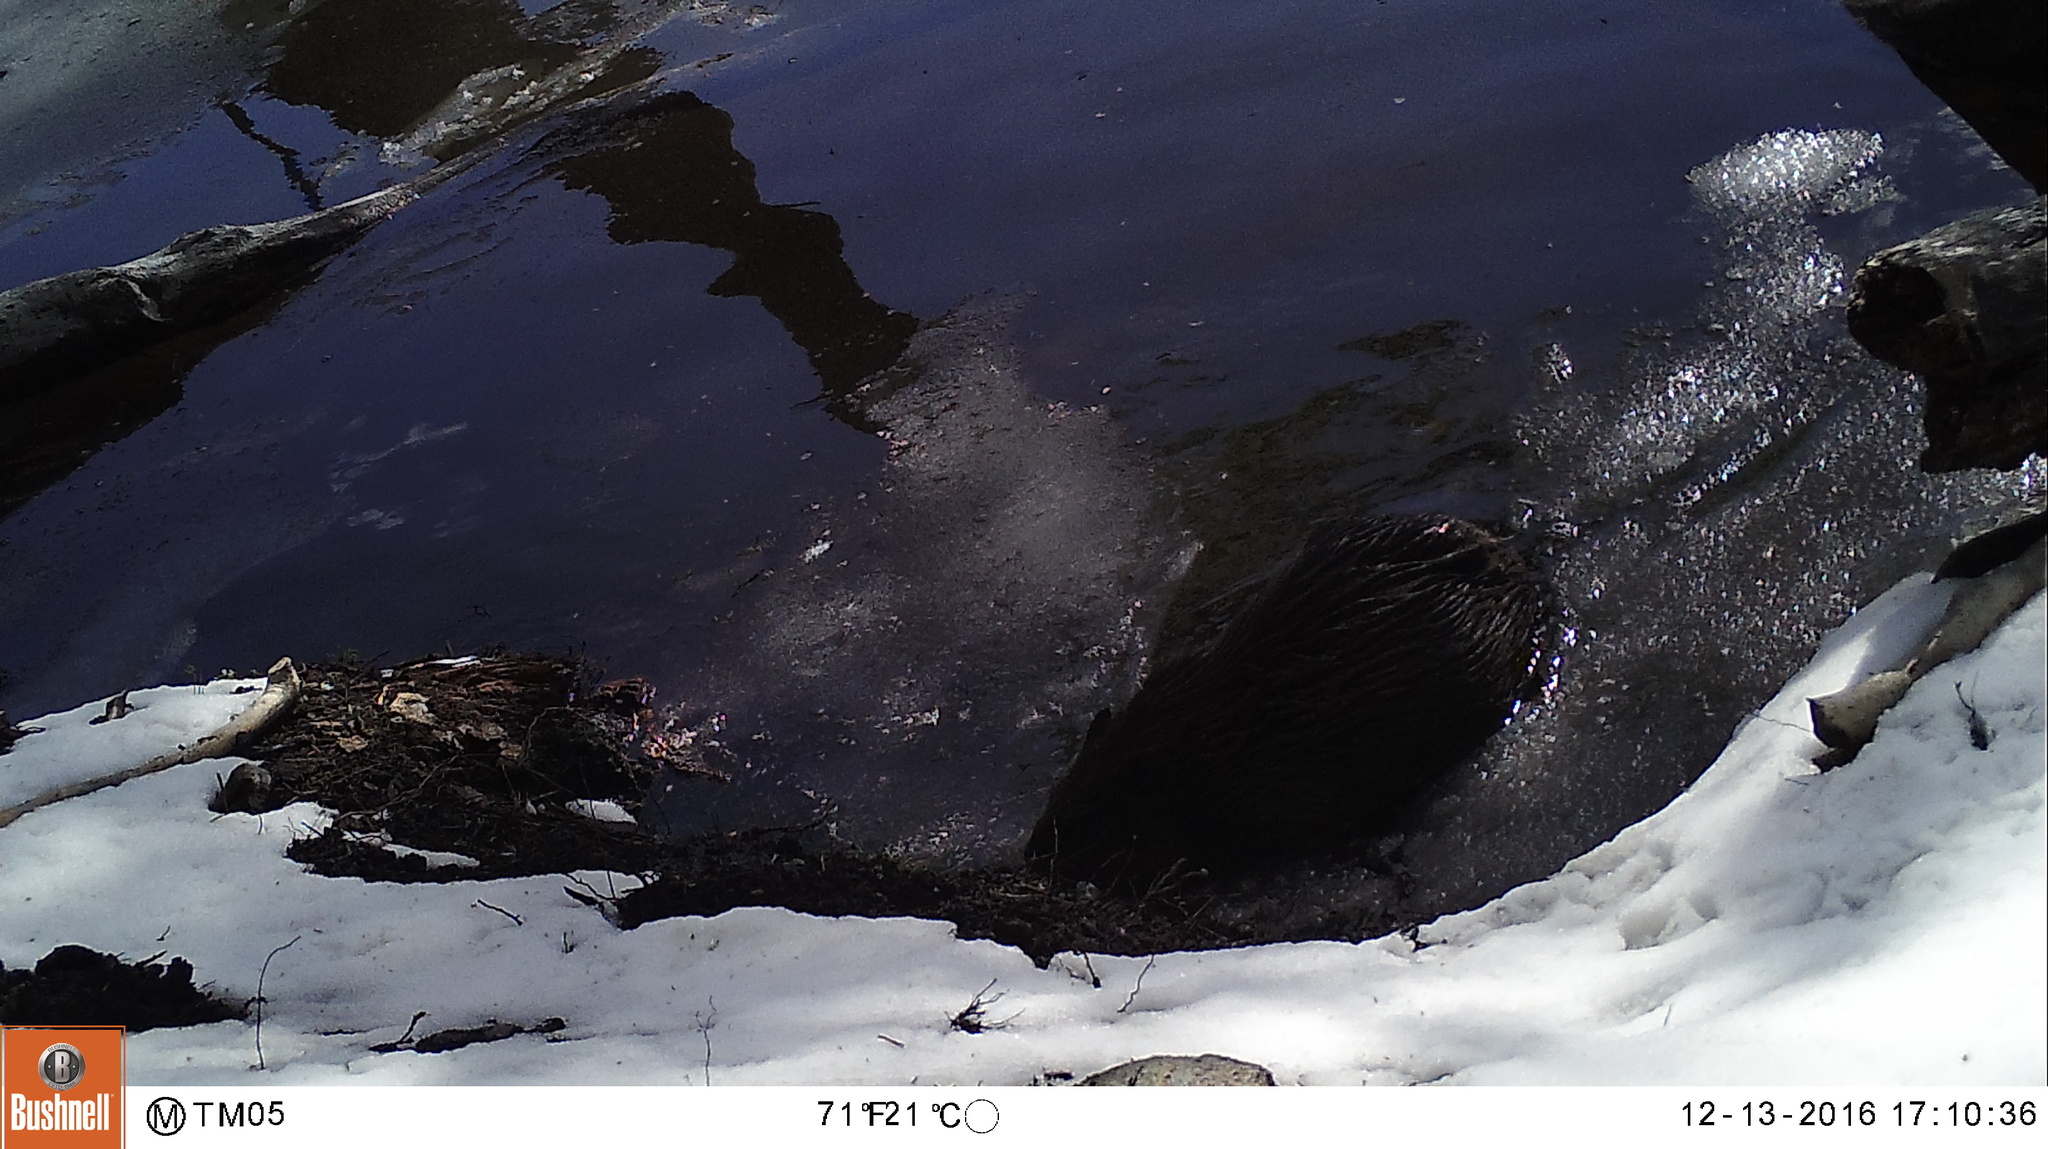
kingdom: Animalia
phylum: Chordata
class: Mammalia
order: Rodentia
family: Castoridae
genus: Castor
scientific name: Castor canadensis
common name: American beaver
